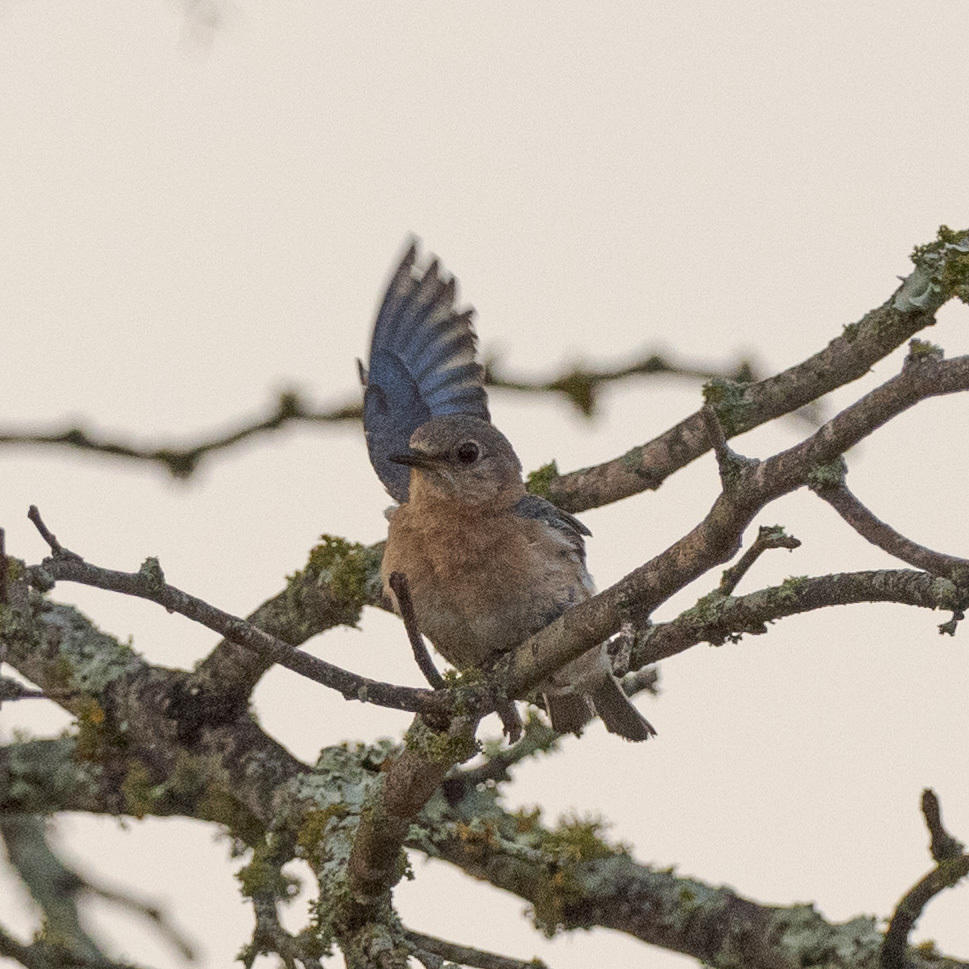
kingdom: Animalia
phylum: Chordata
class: Aves
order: Passeriformes
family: Turdidae
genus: Sialia
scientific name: Sialia sialis
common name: Eastern bluebird
